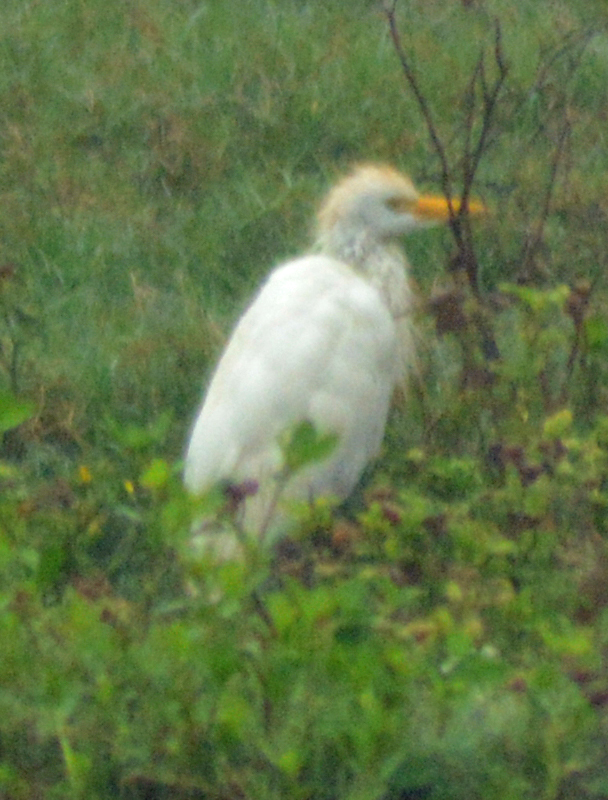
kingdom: Animalia
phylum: Chordata
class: Aves
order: Pelecaniformes
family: Ardeidae
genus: Bubulcus
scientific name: Bubulcus ibis
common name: Cattle egret
